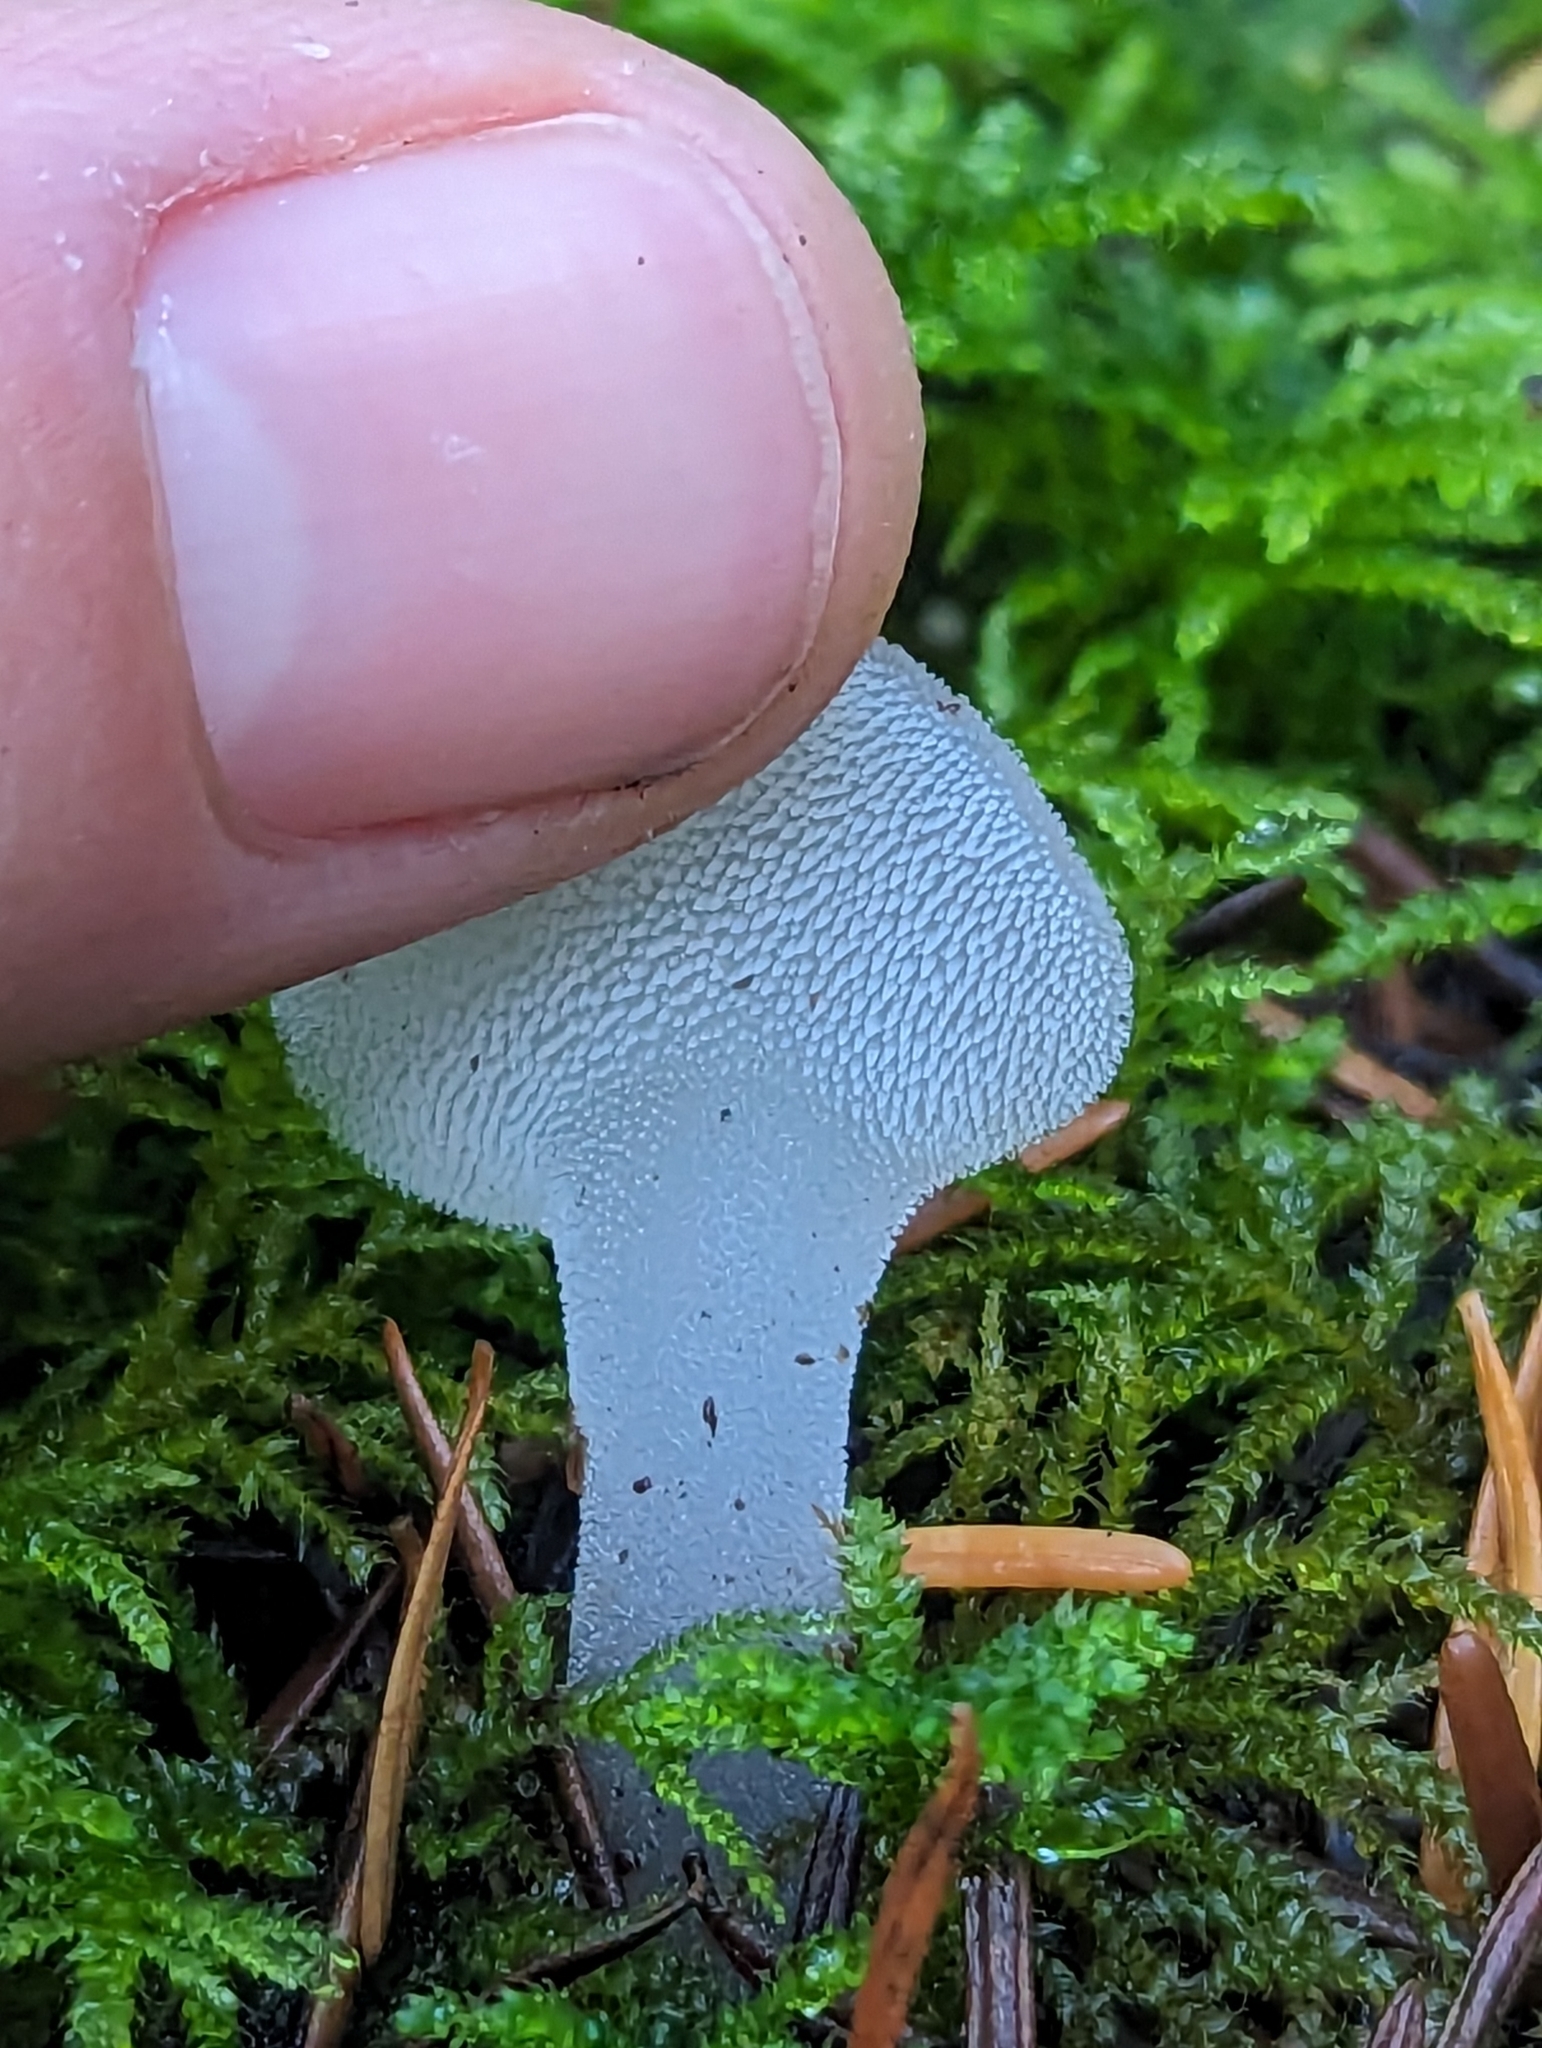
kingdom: Fungi
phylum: Basidiomycota
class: Agaricomycetes
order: Auriculariales
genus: Pseudohydnum
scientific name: Pseudohydnum gelatinosum
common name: Jelly tongue
